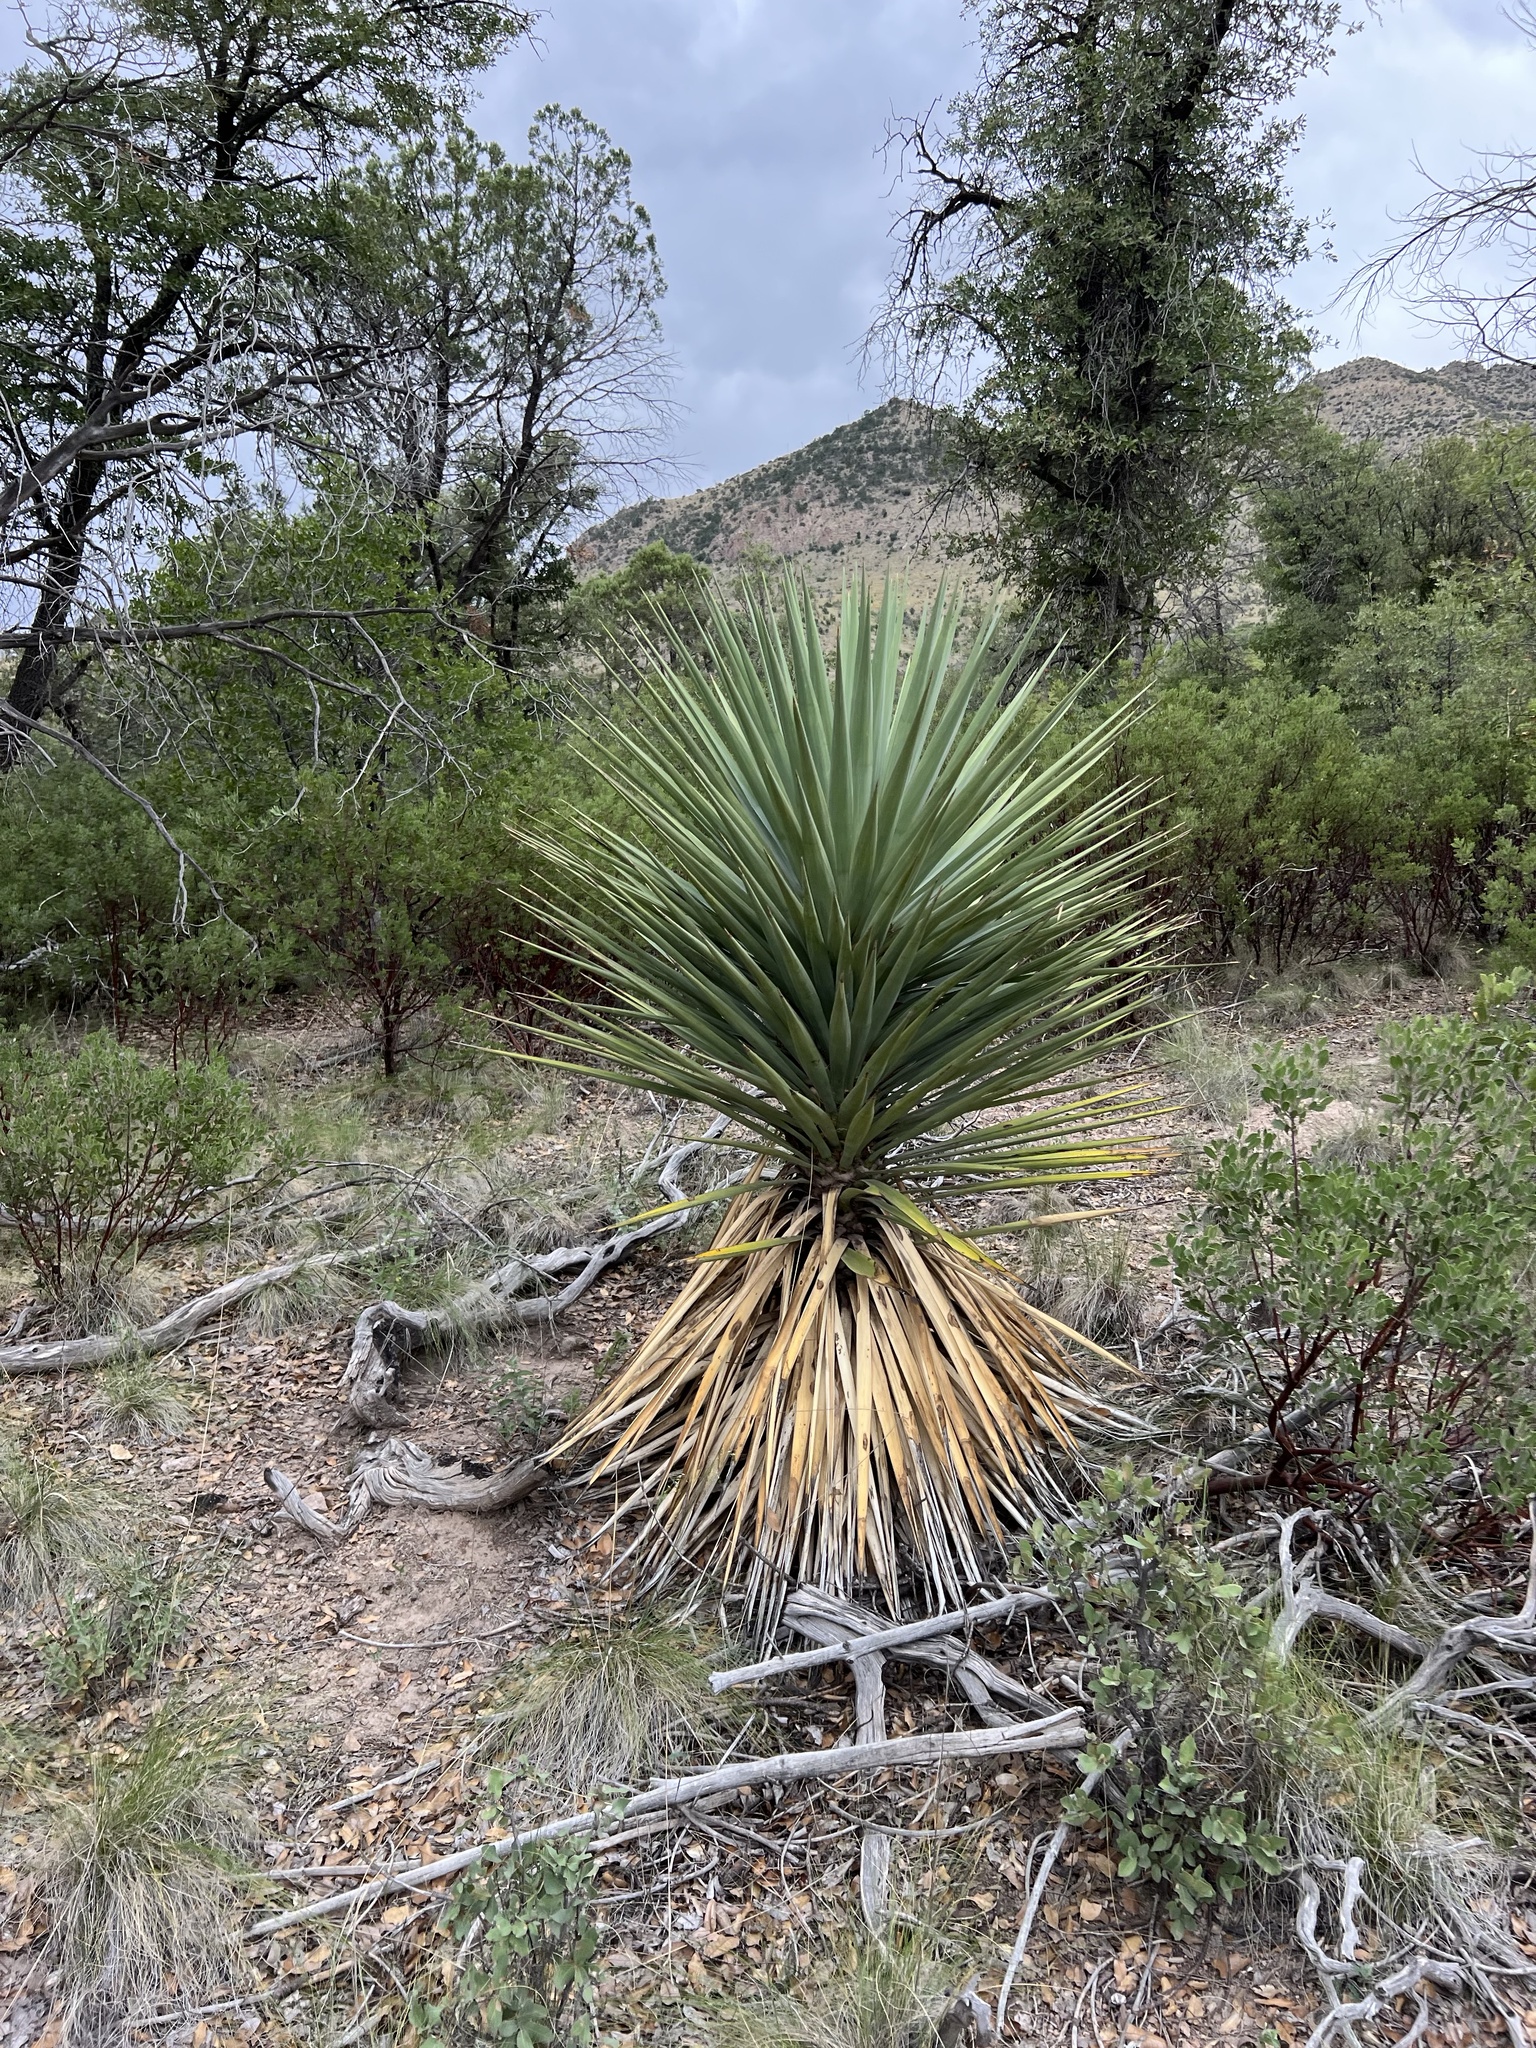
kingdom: Plantae
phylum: Tracheophyta
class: Liliopsida
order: Asparagales
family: Asparagaceae
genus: Yucca
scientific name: Yucca schottii
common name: Hoary yucca
